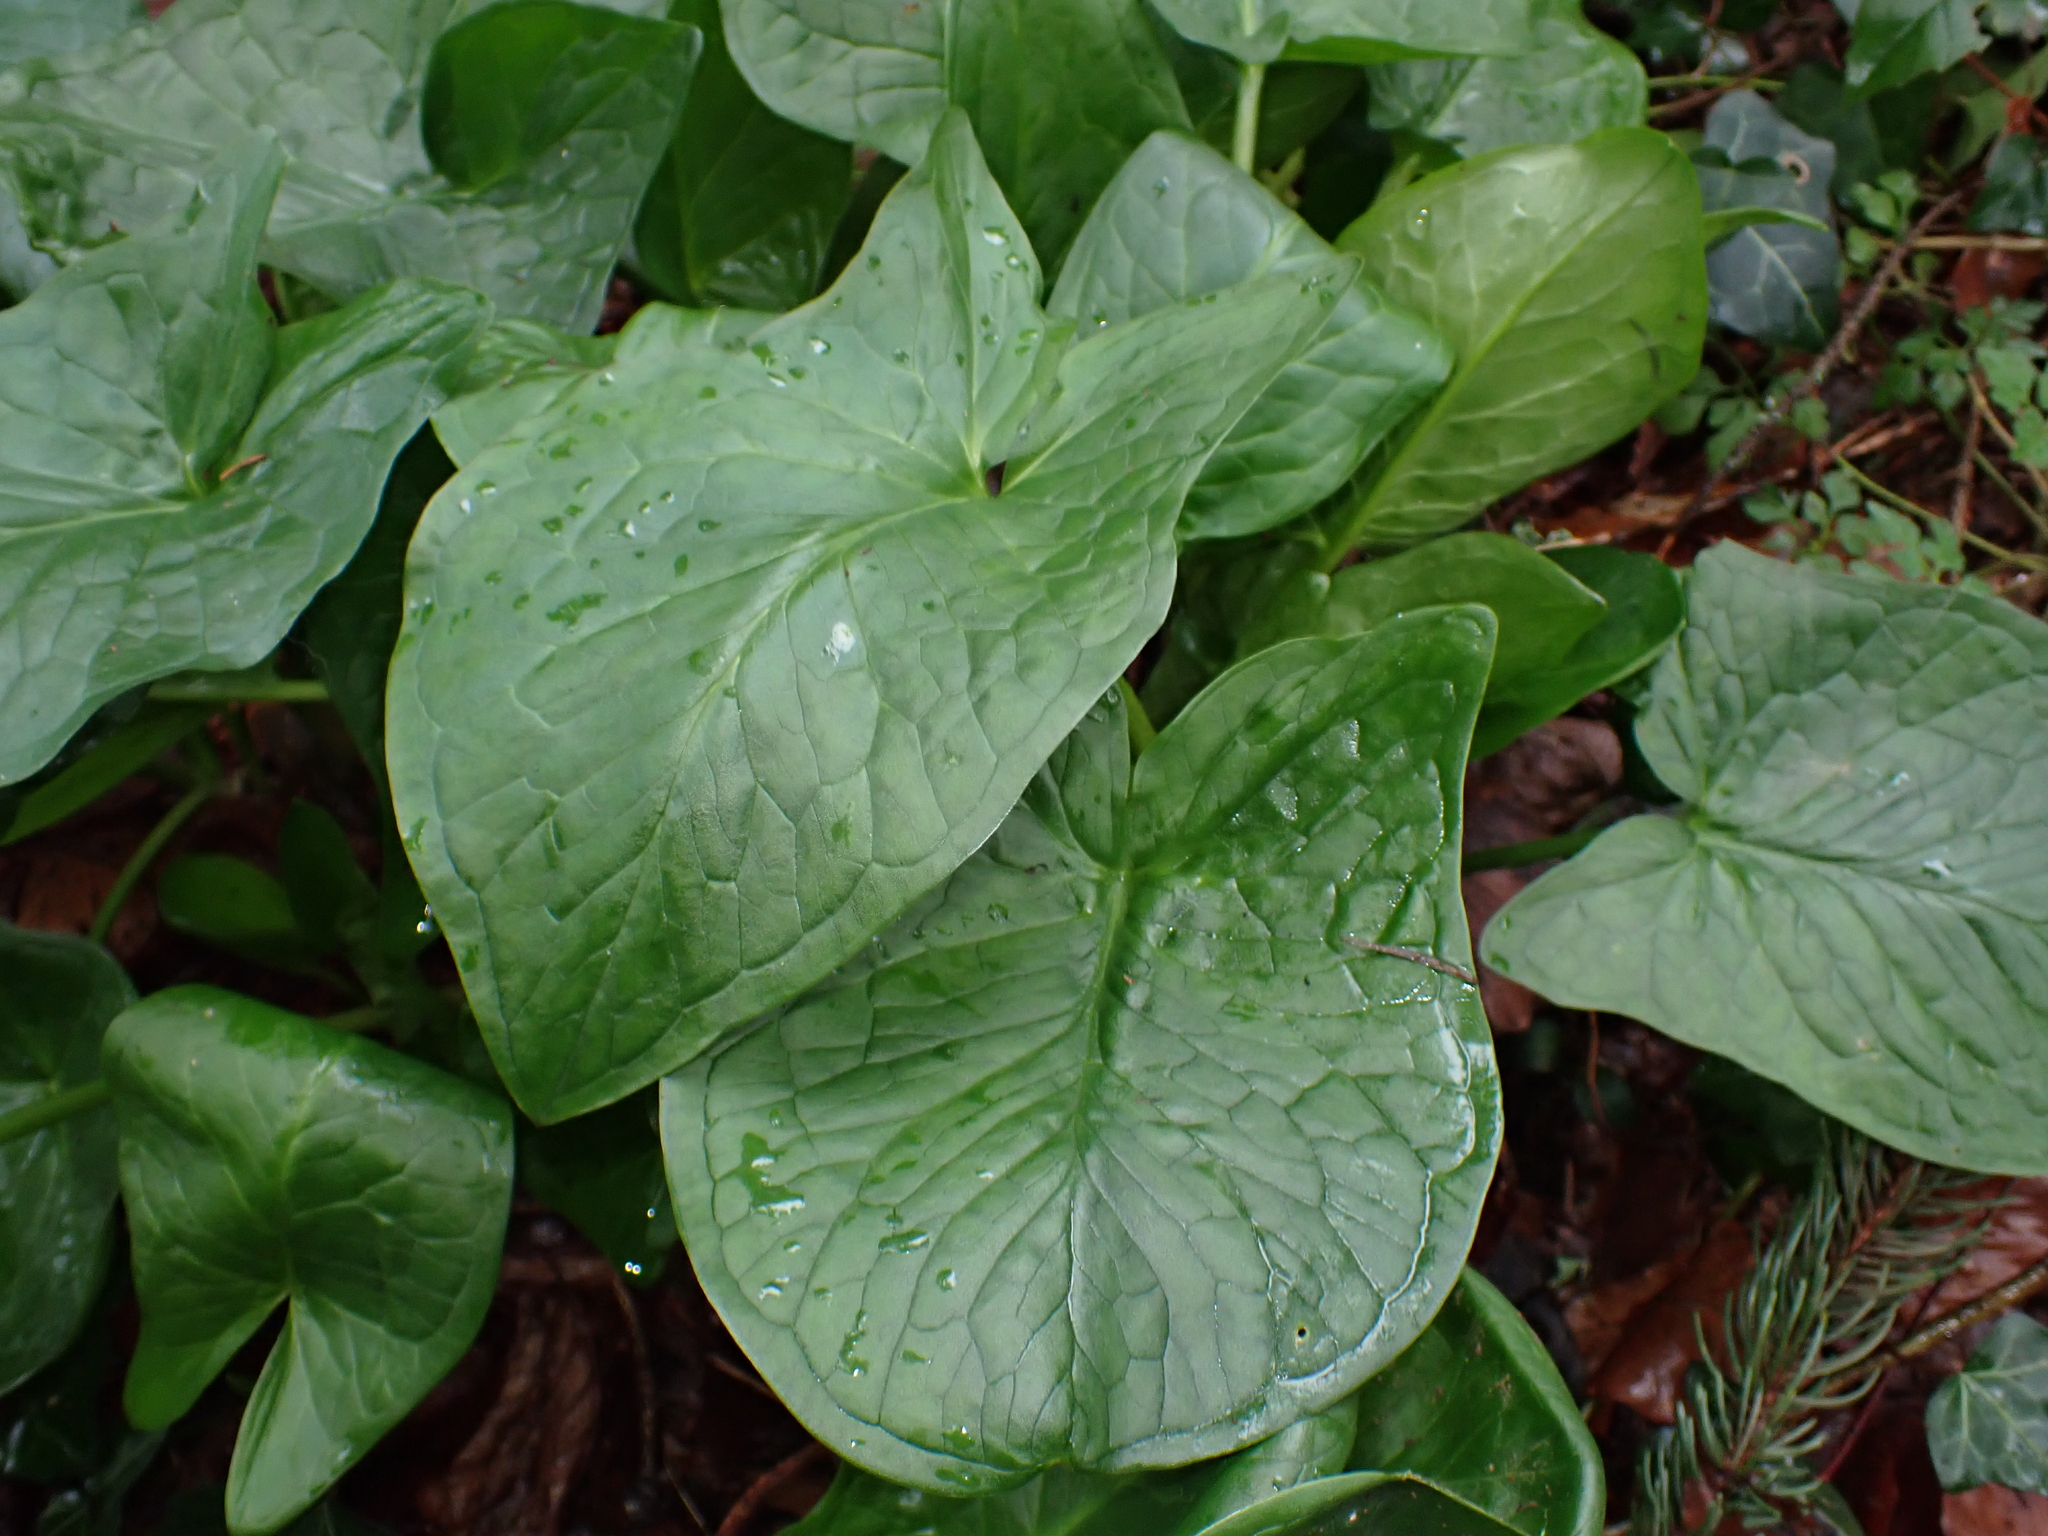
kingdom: Plantae
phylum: Tracheophyta
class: Liliopsida
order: Alismatales
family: Araceae
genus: Arum
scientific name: Arum maculatum
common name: Lords-and-ladies
